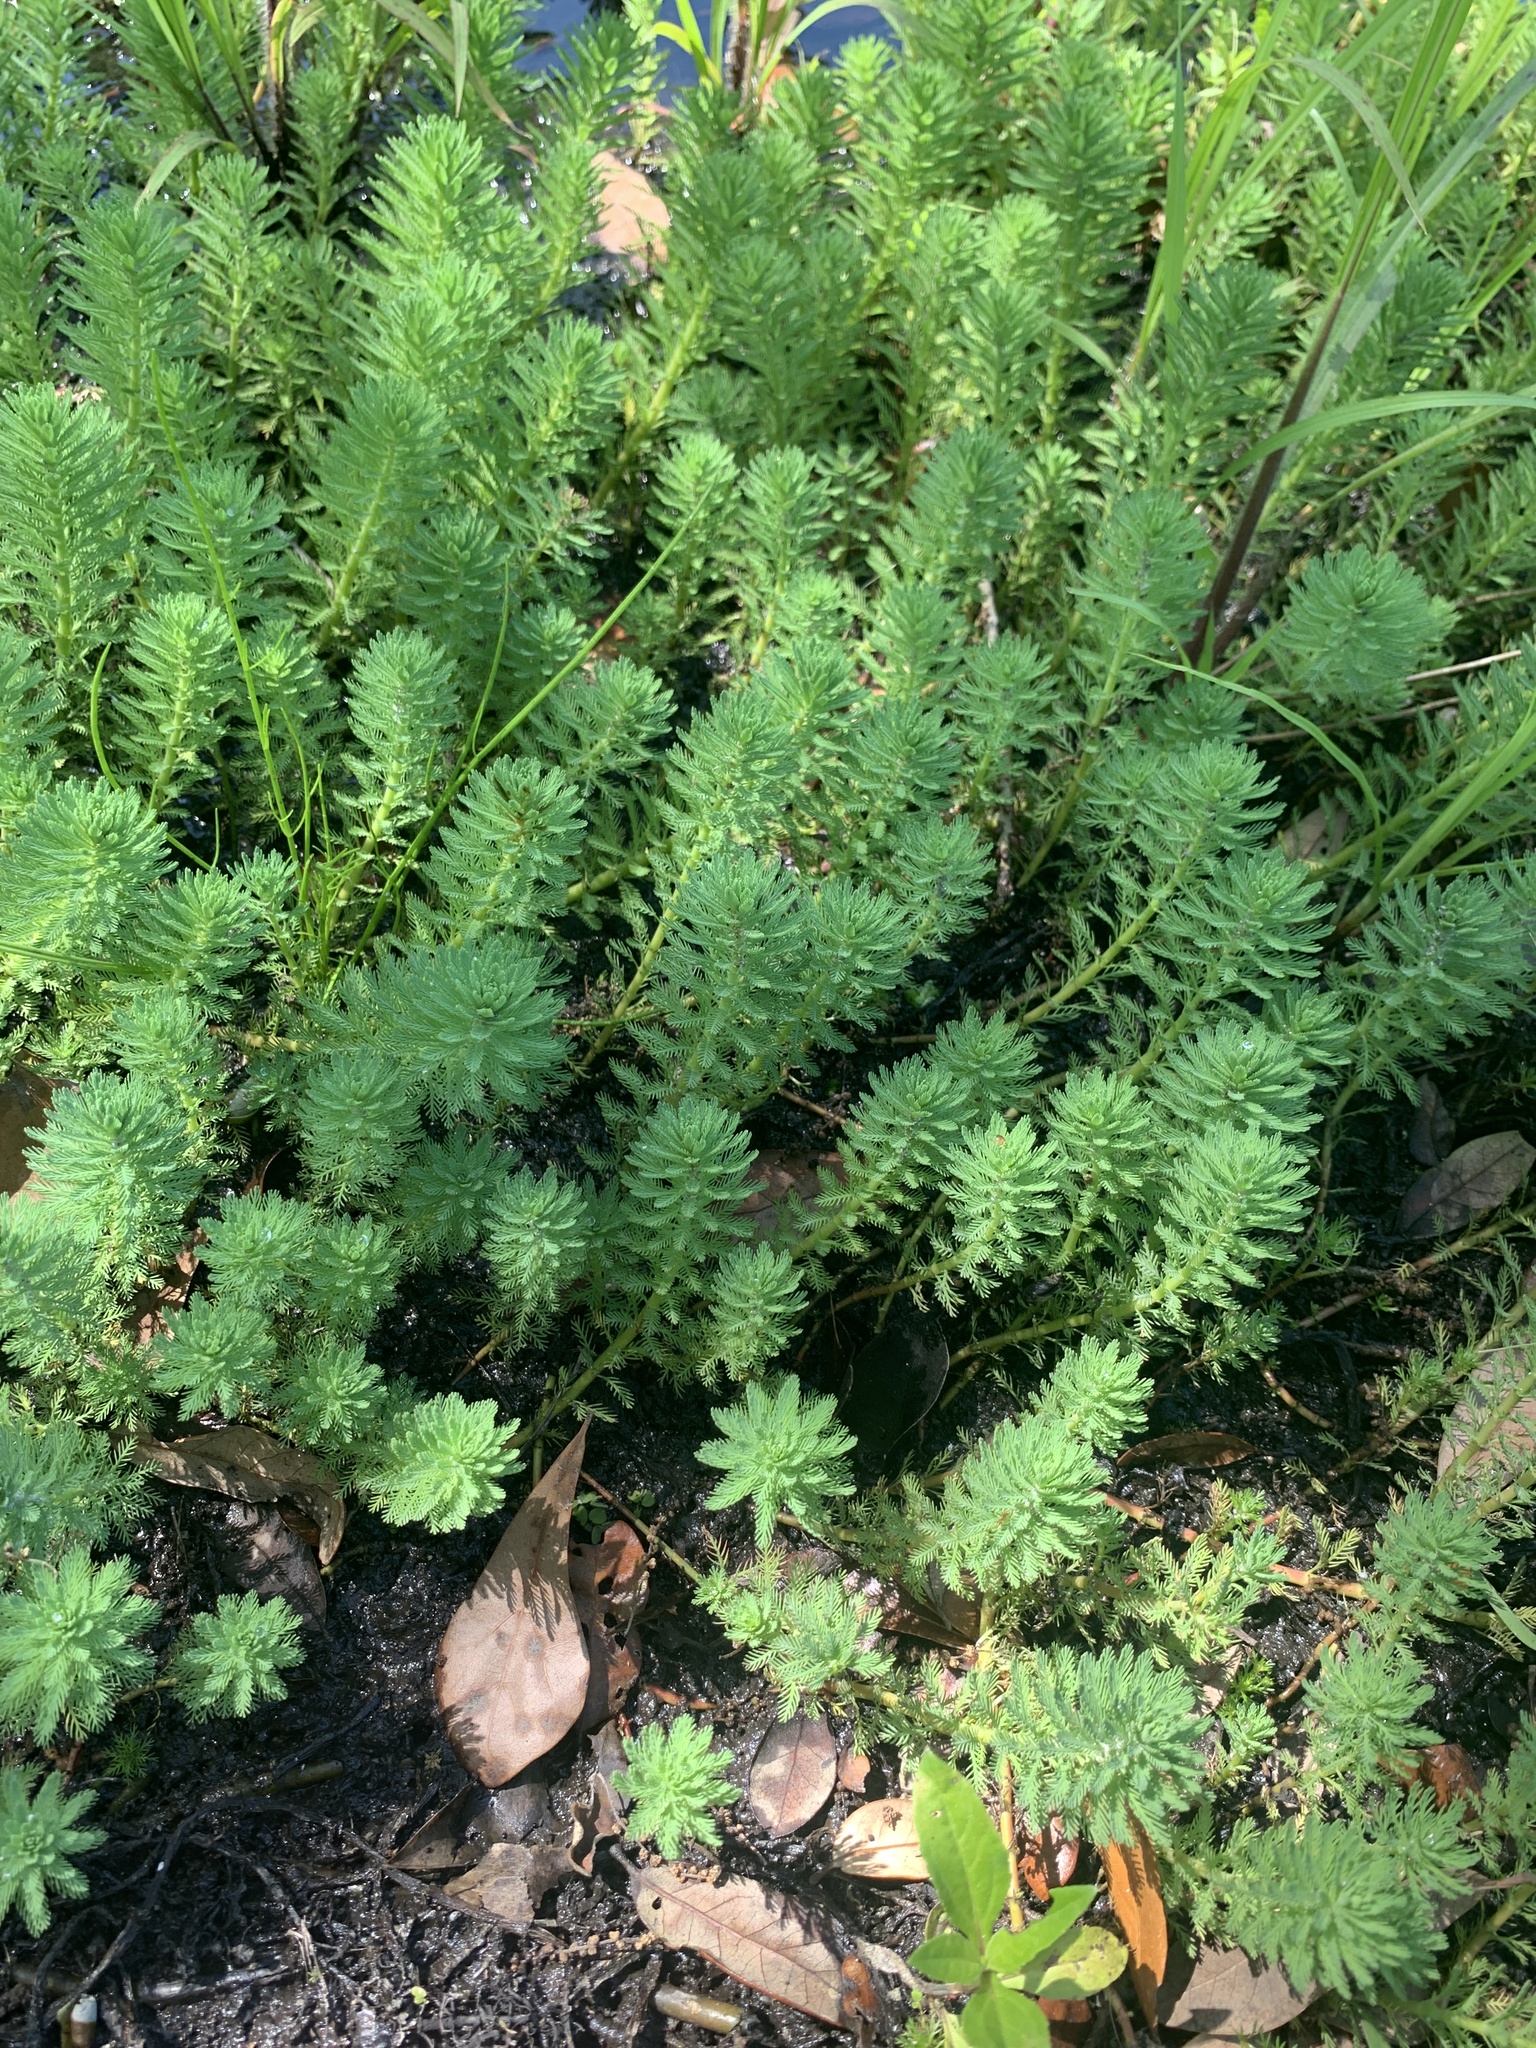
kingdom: Plantae
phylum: Tracheophyta
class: Magnoliopsida
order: Saxifragales
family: Haloragaceae
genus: Myriophyllum
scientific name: Myriophyllum aquaticum
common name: Parrot's feather
